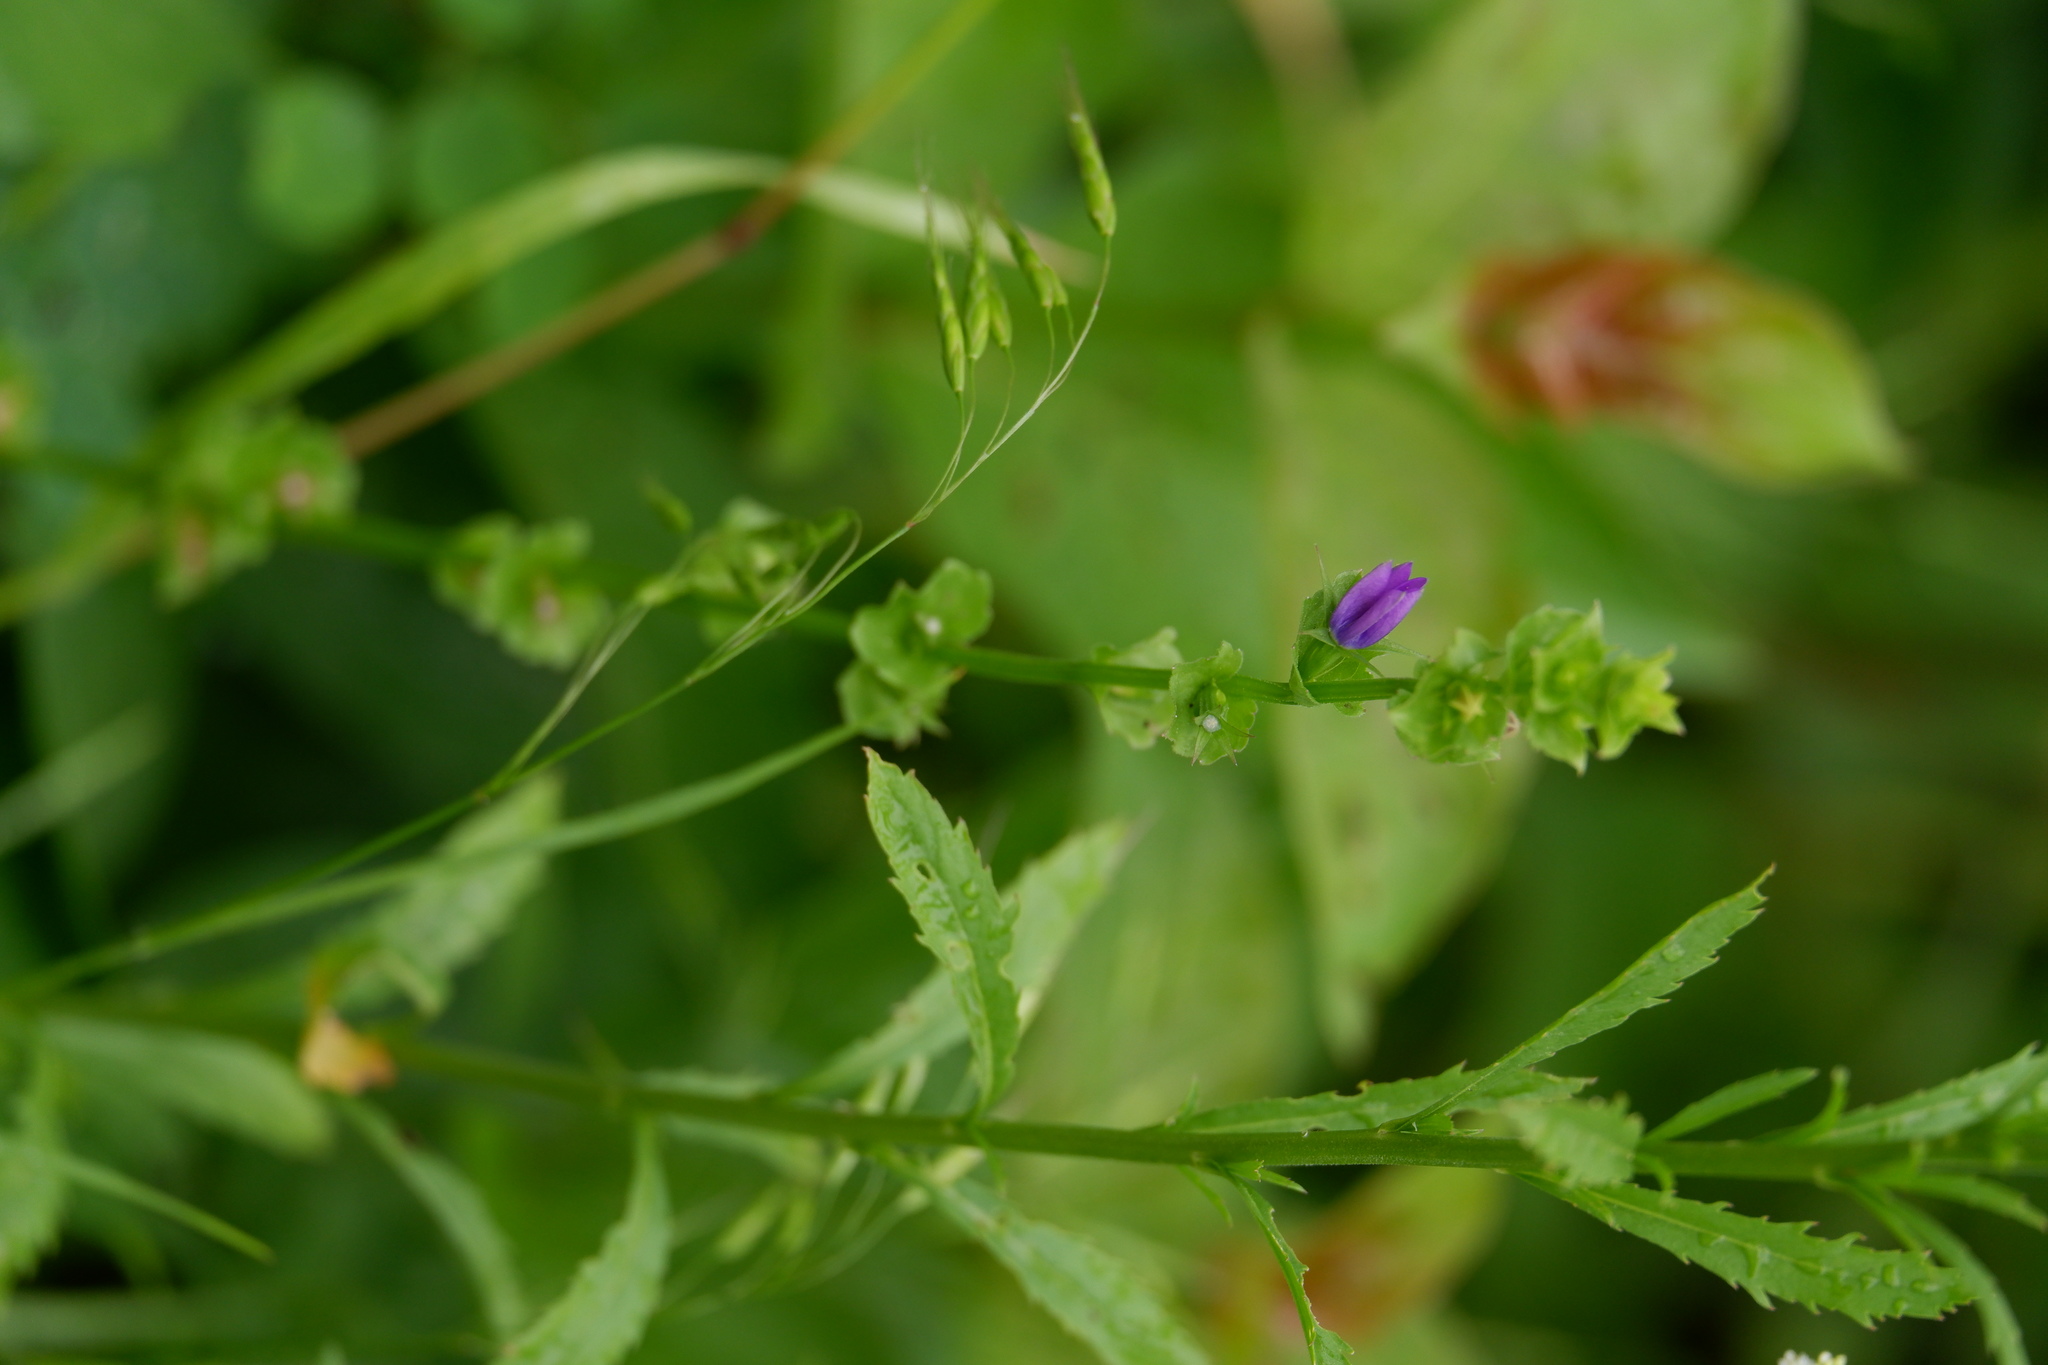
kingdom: Plantae
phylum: Tracheophyta
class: Magnoliopsida
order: Asterales
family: Campanulaceae
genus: Triodanis
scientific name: Triodanis perfoliata
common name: Clasping venus' looking-glass
